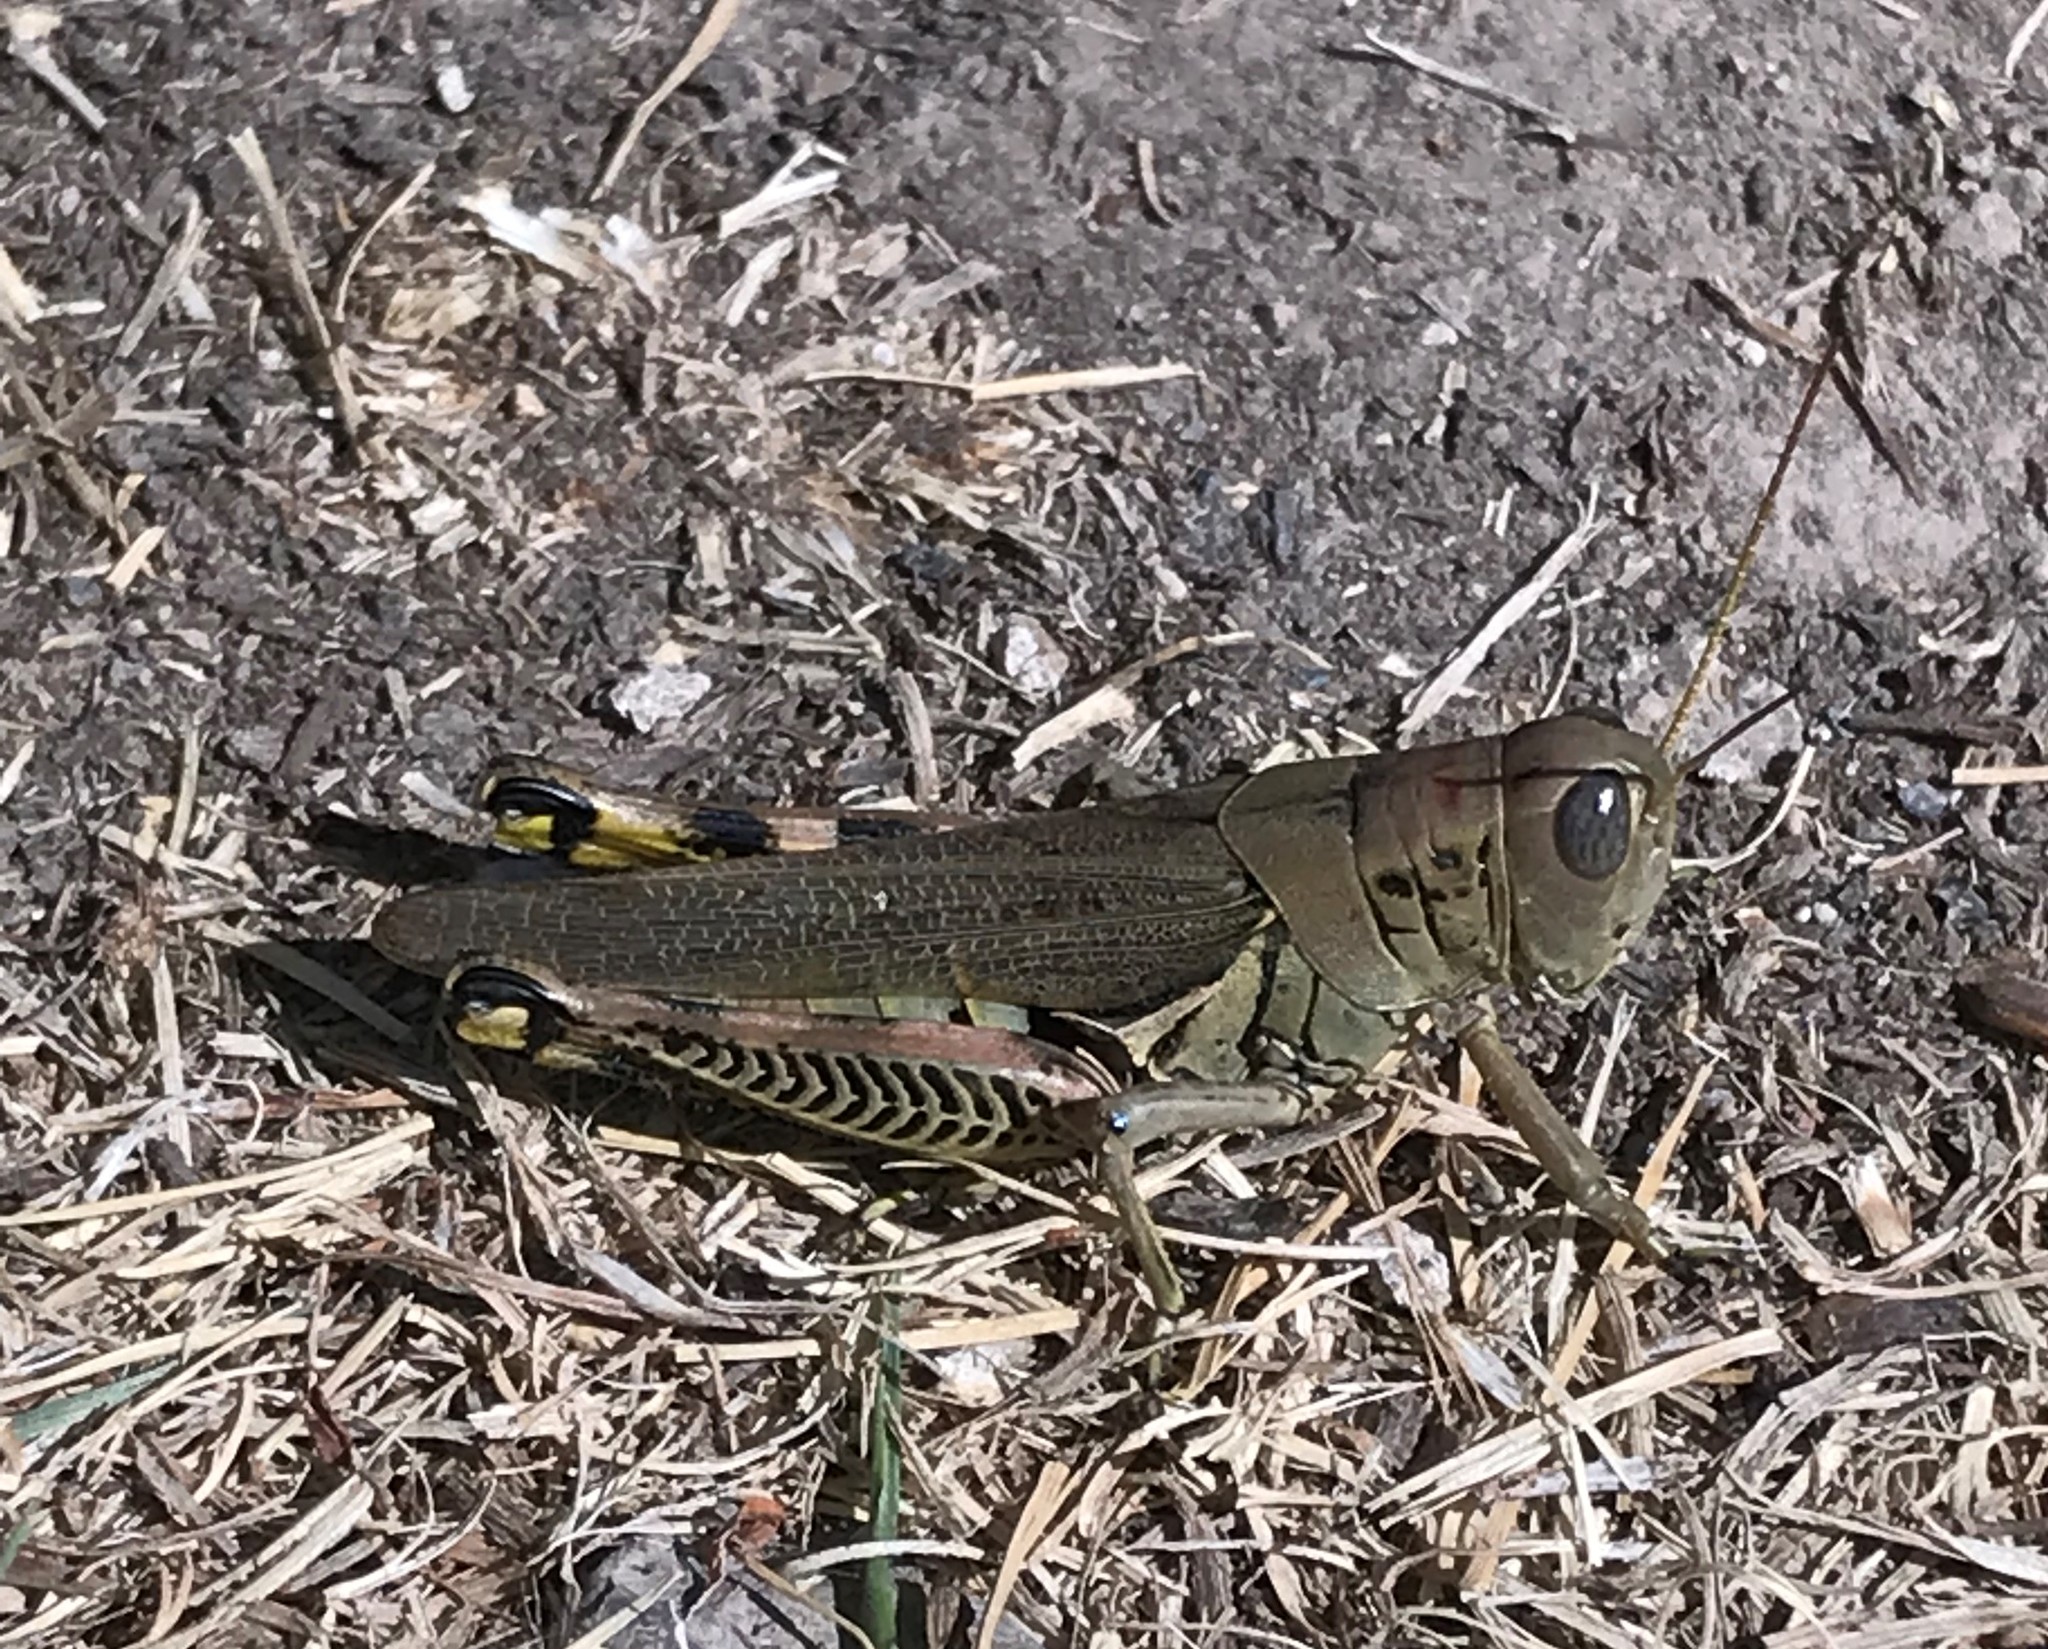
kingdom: Animalia
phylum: Arthropoda
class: Insecta
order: Orthoptera
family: Acrididae
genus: Melanoplus
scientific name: Melanoplus differentialis
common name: Differential grasshopper
